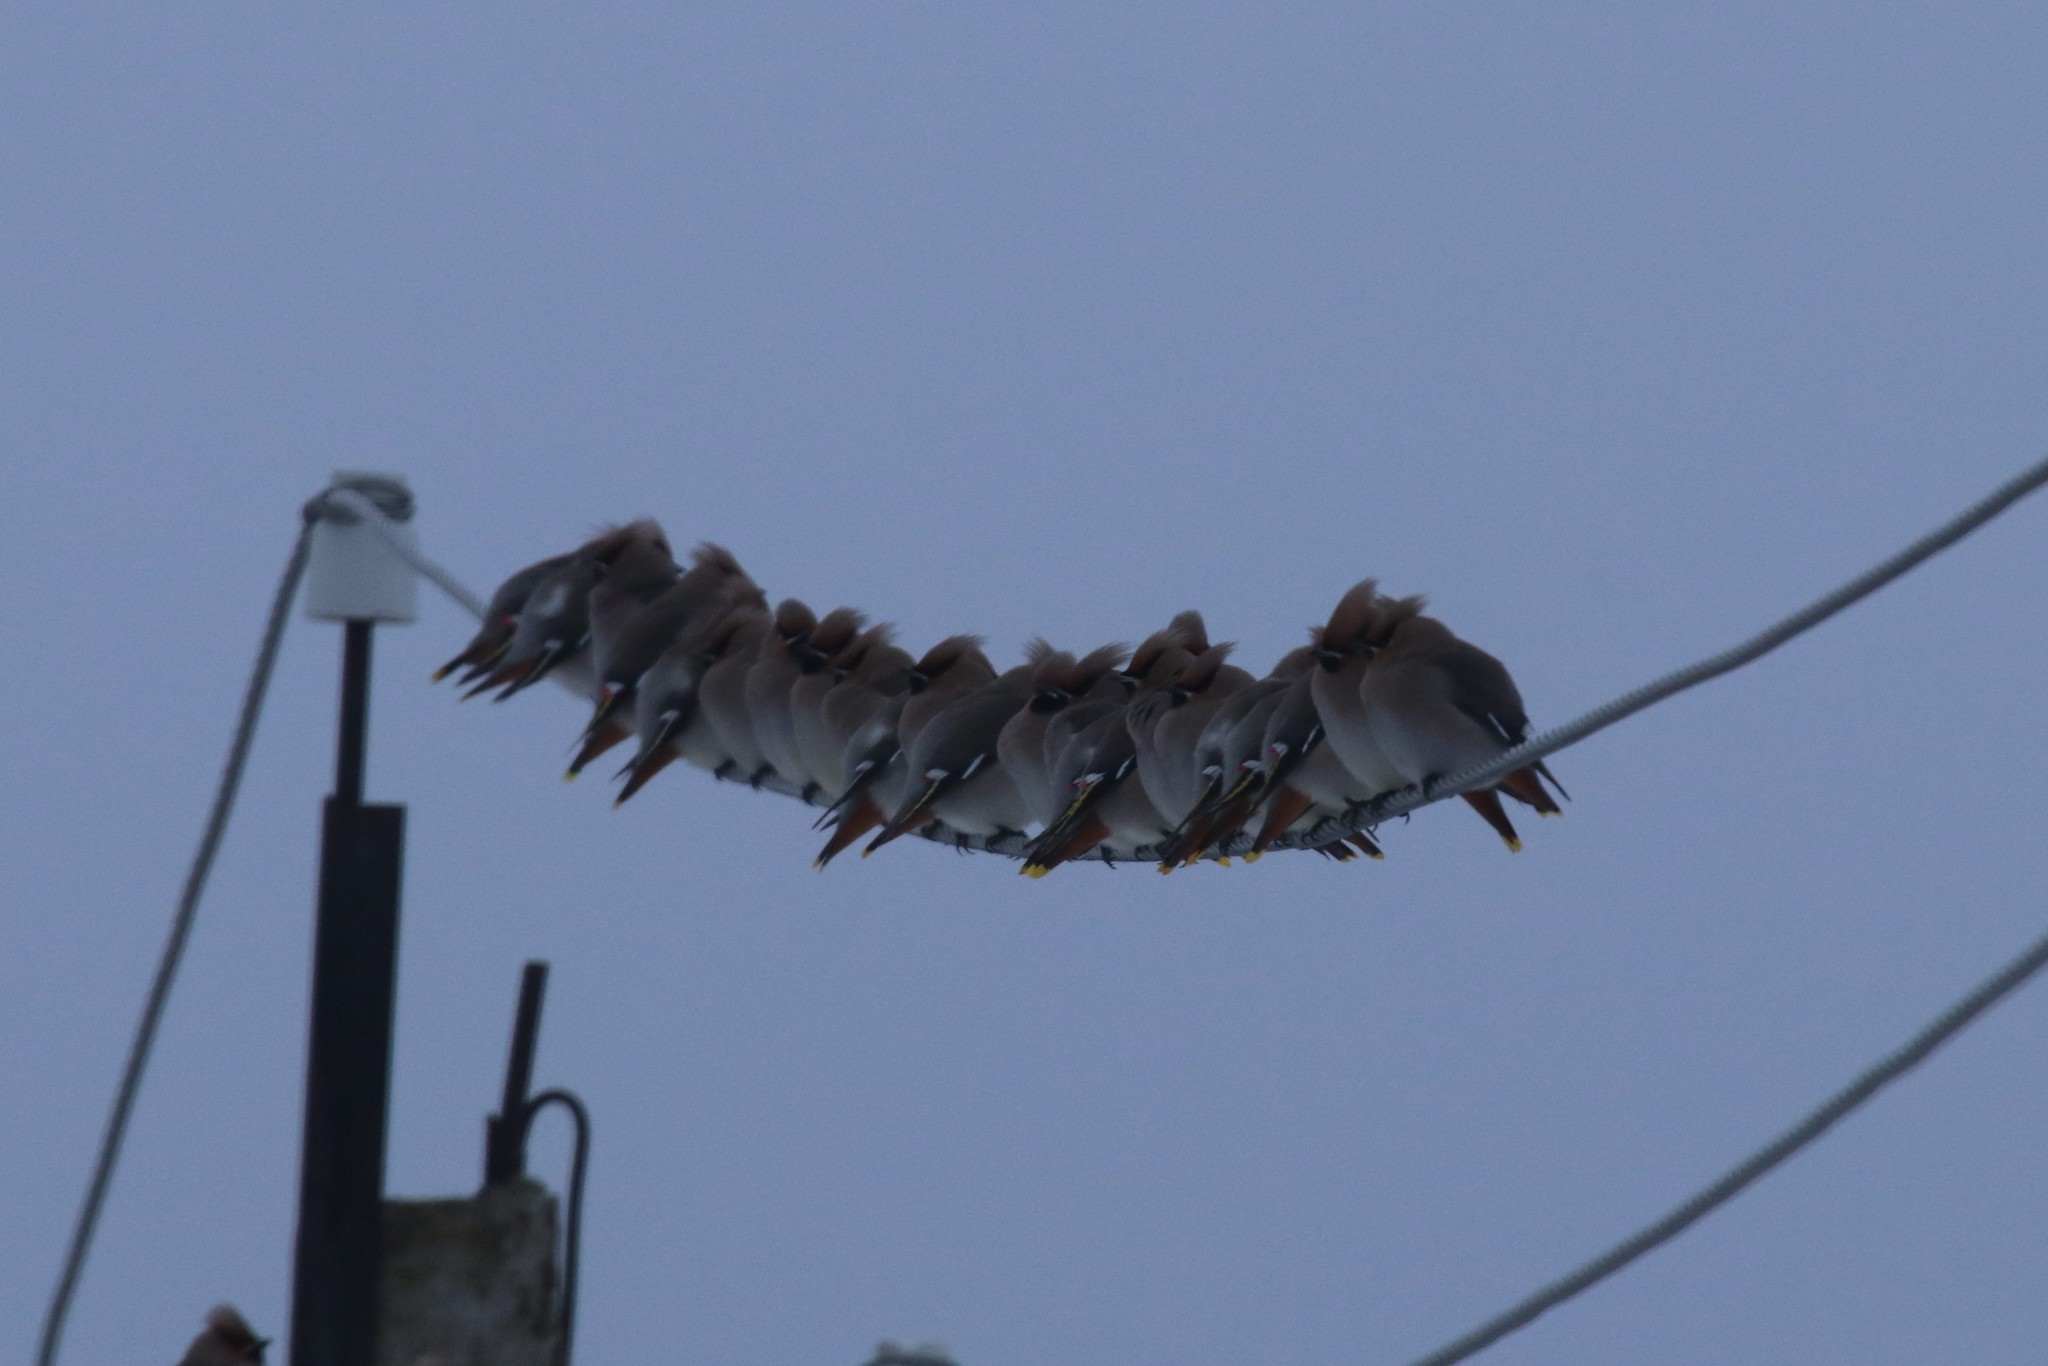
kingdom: Animalia
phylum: Chordata
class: Aves
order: Passeriformes
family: Bombycillidae
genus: Bombycilla
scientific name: Bombycilla garrulus
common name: Bohemian waxwing
